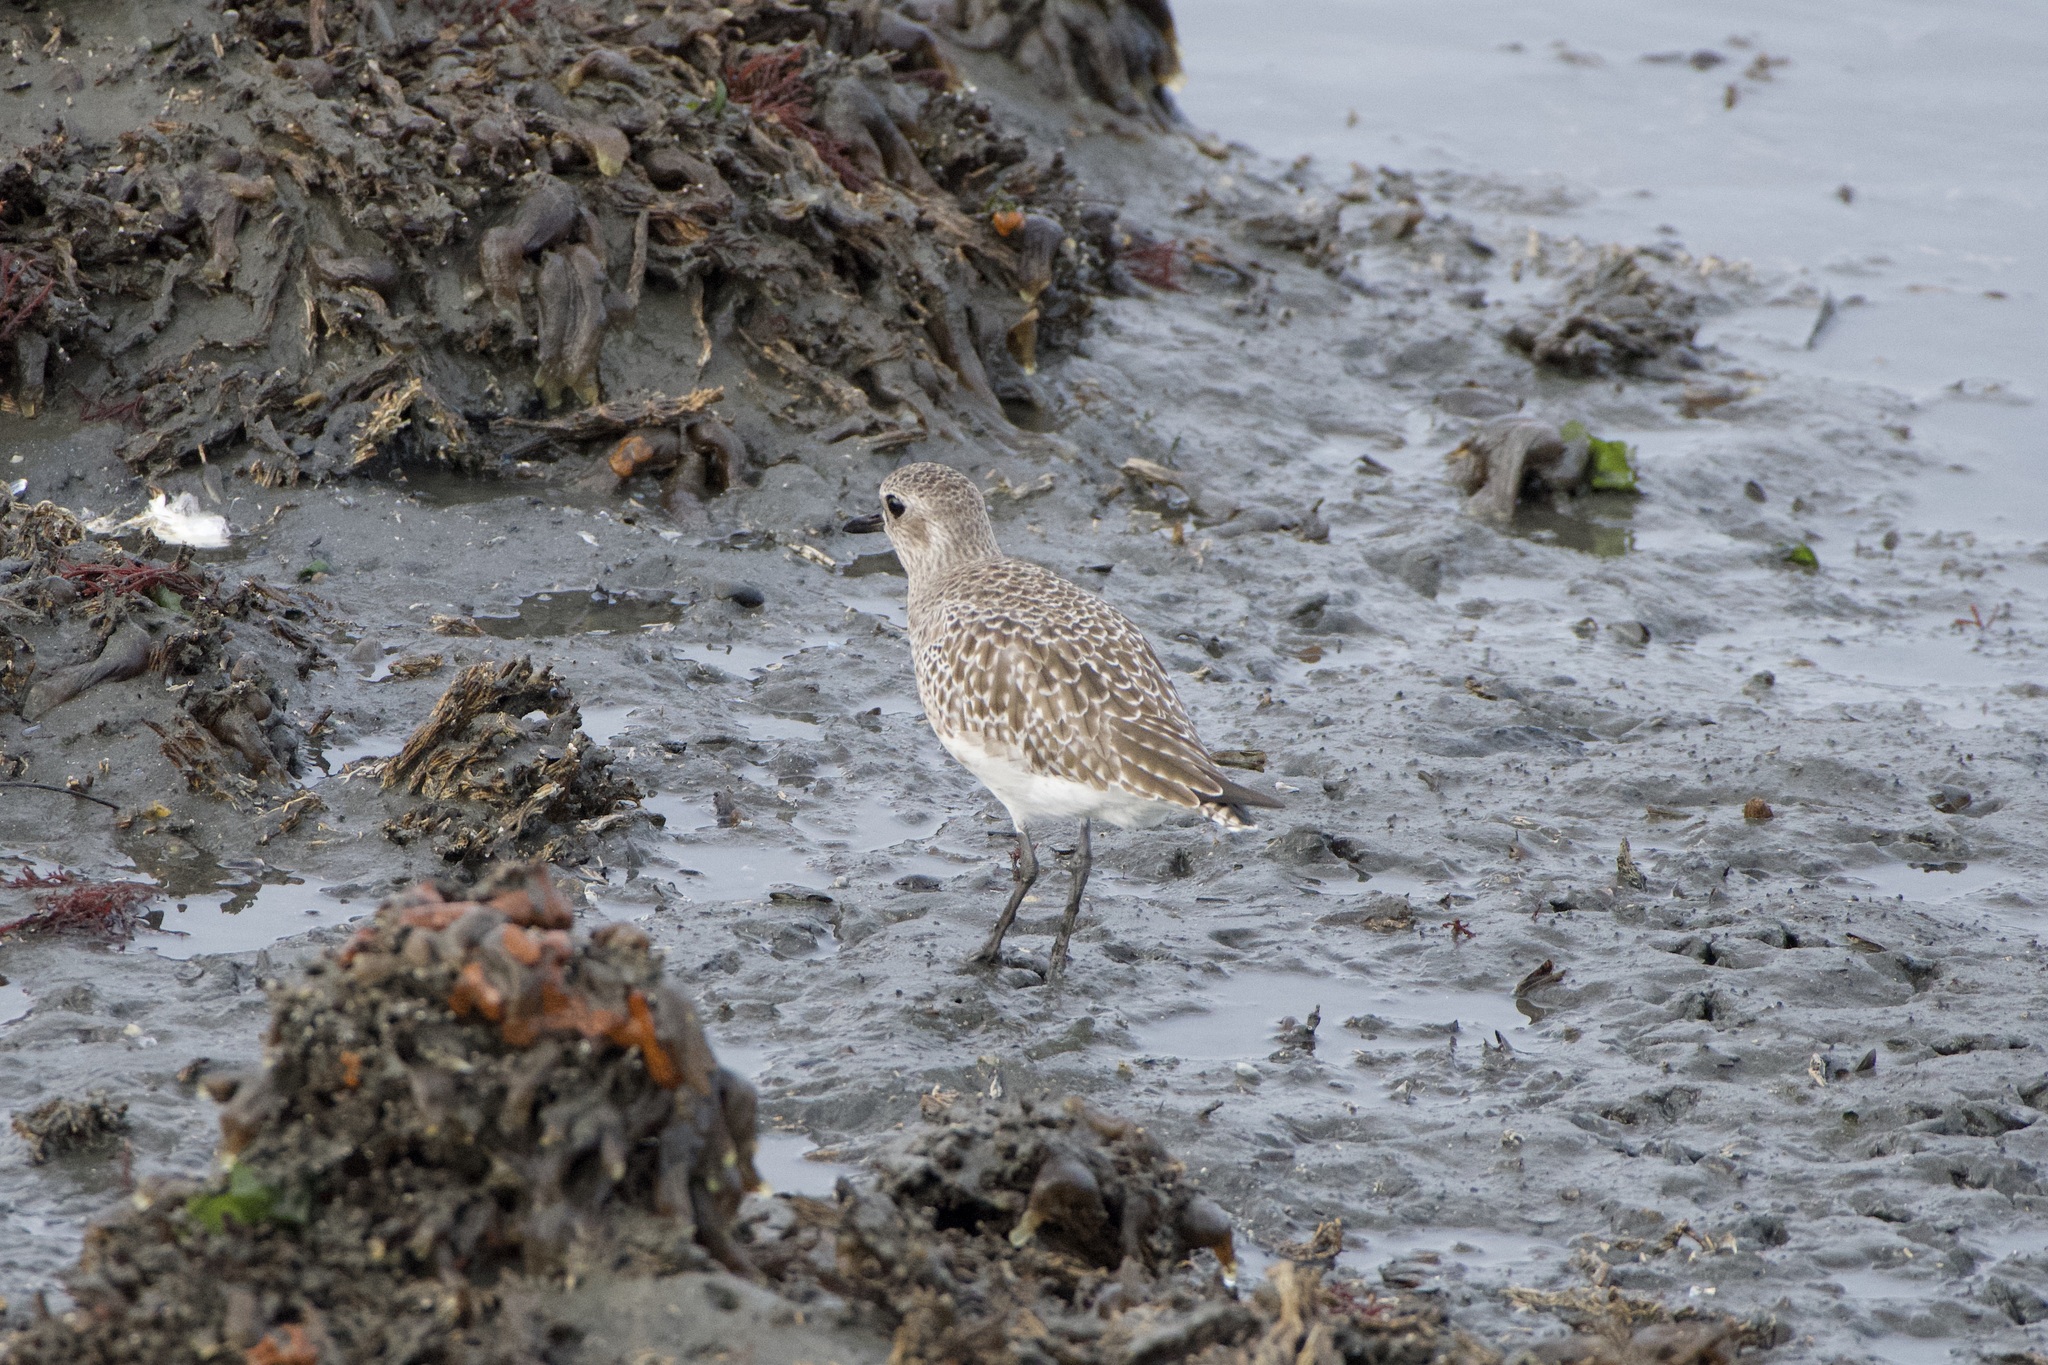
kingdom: Animalia
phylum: Chordata
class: Aves
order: Charadriiformes
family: Charadriidae
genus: Pluvialis
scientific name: Pluvialis squatarola
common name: Grey plover
